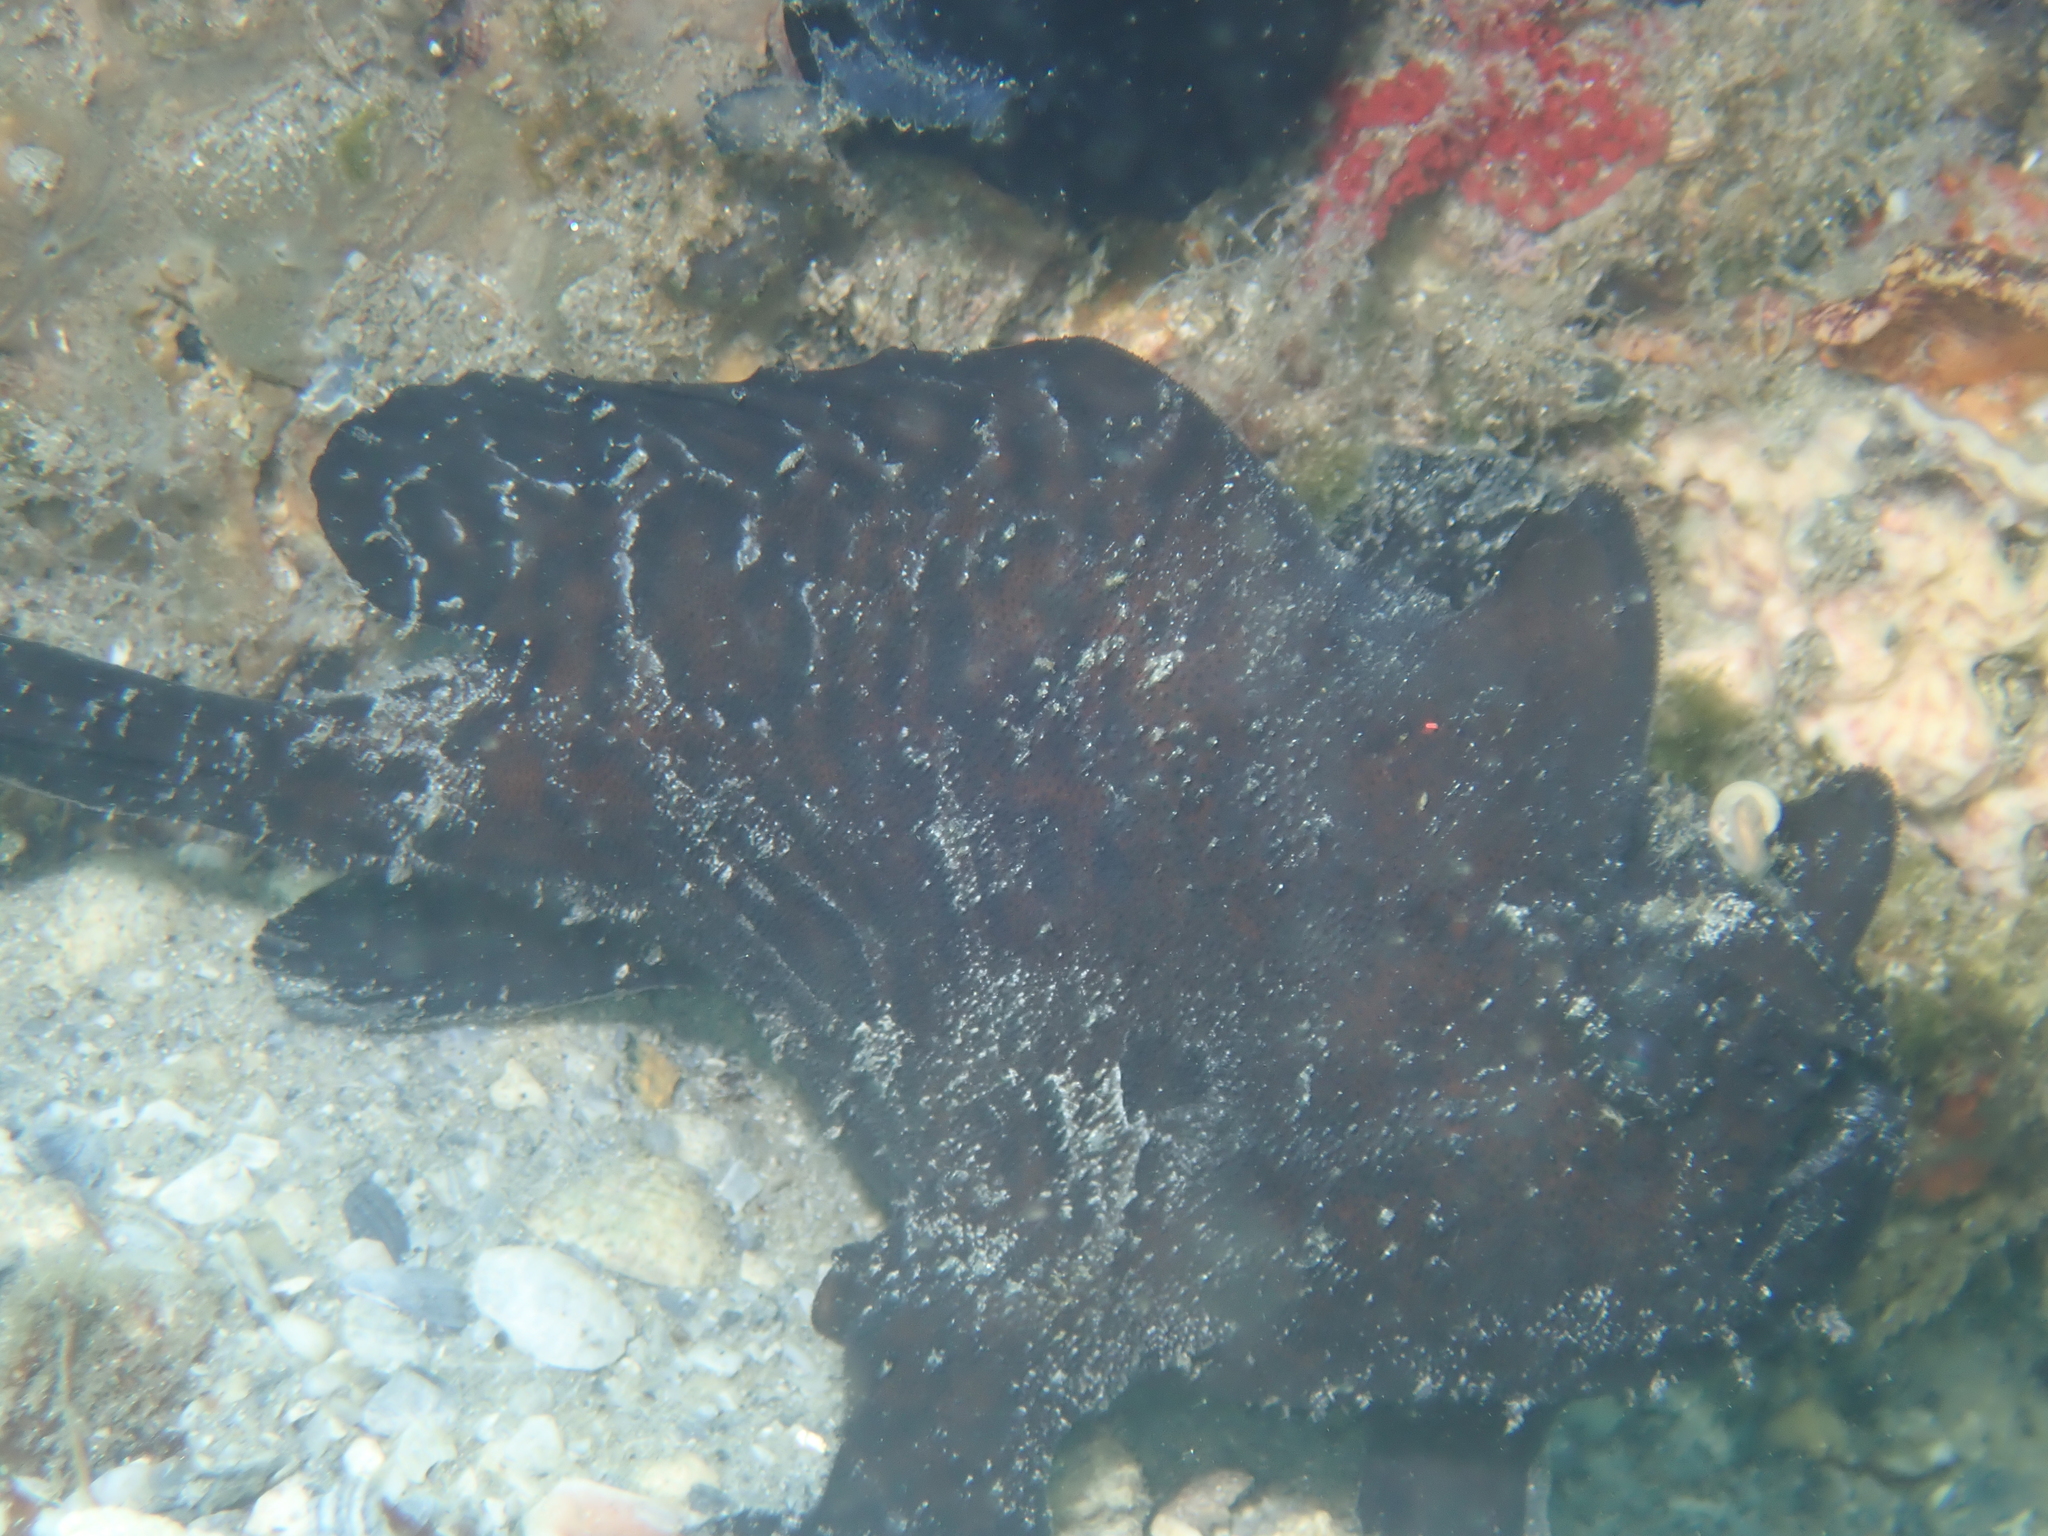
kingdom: Animalia
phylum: Chordata
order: Lophiiformes
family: Antennariidae
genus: Antennarius
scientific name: Antennarius striatus
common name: Striated frogfish
